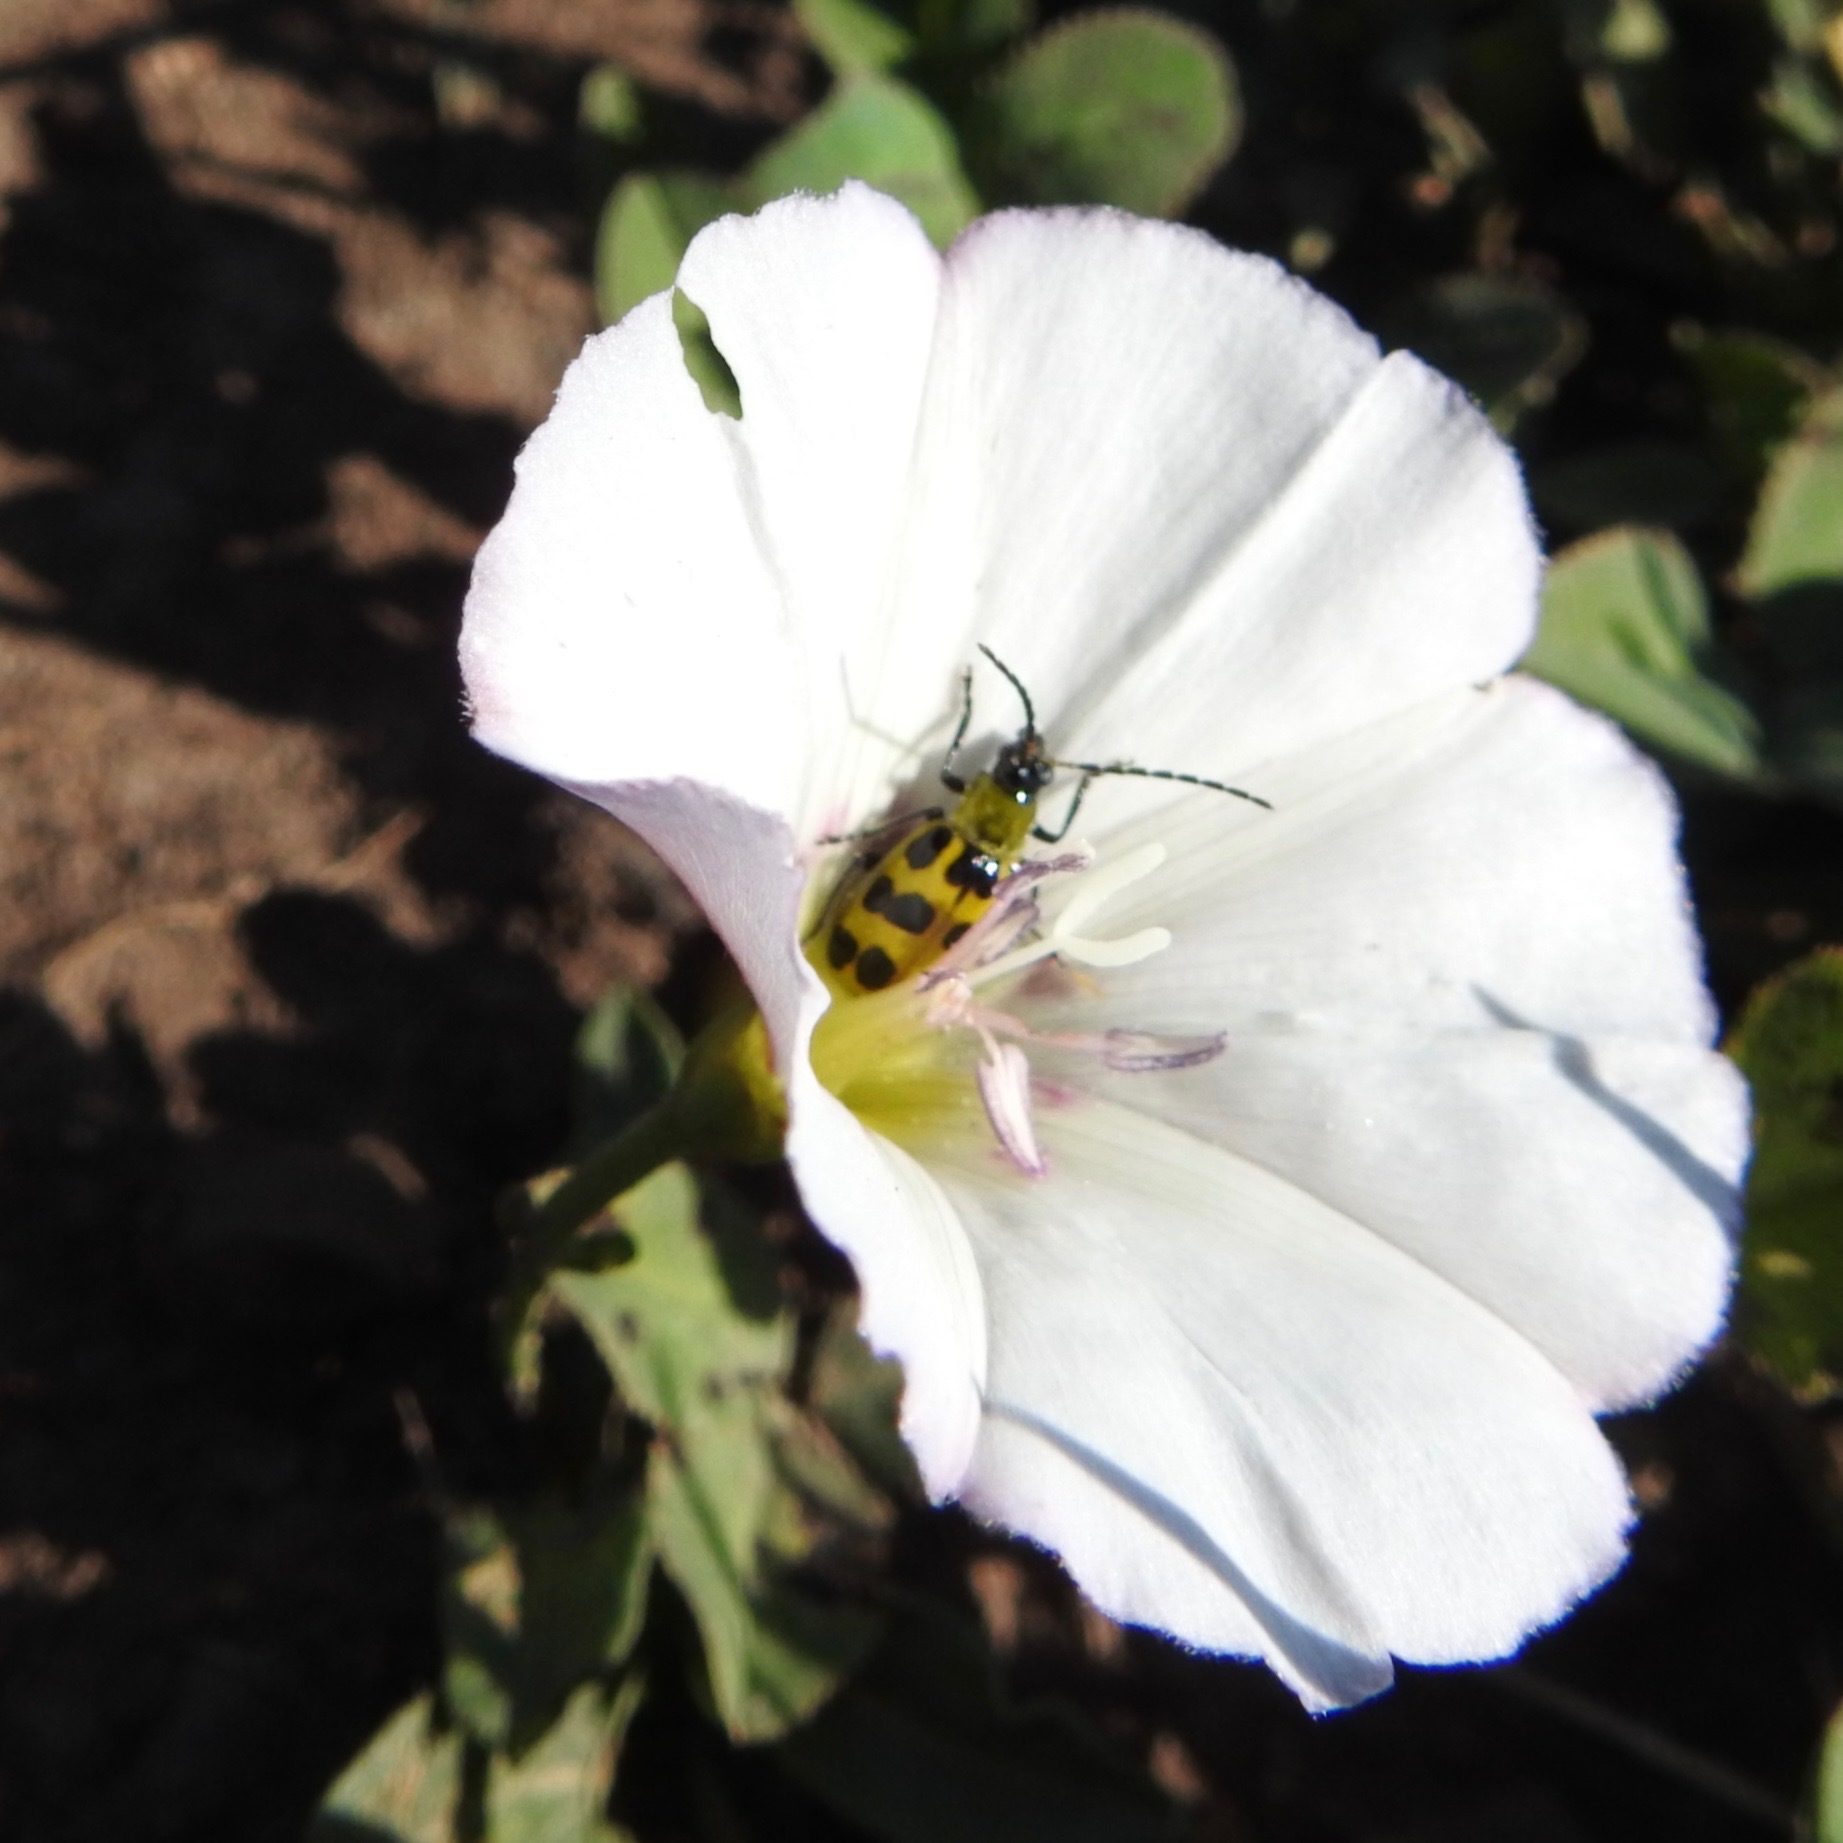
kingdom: Plantae
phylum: Tracheophyta
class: Magnoliopsida
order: Solanales
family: Convolvulaceae
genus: Convolvulus
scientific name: Convolvulus arvensis
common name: Field bindweed
